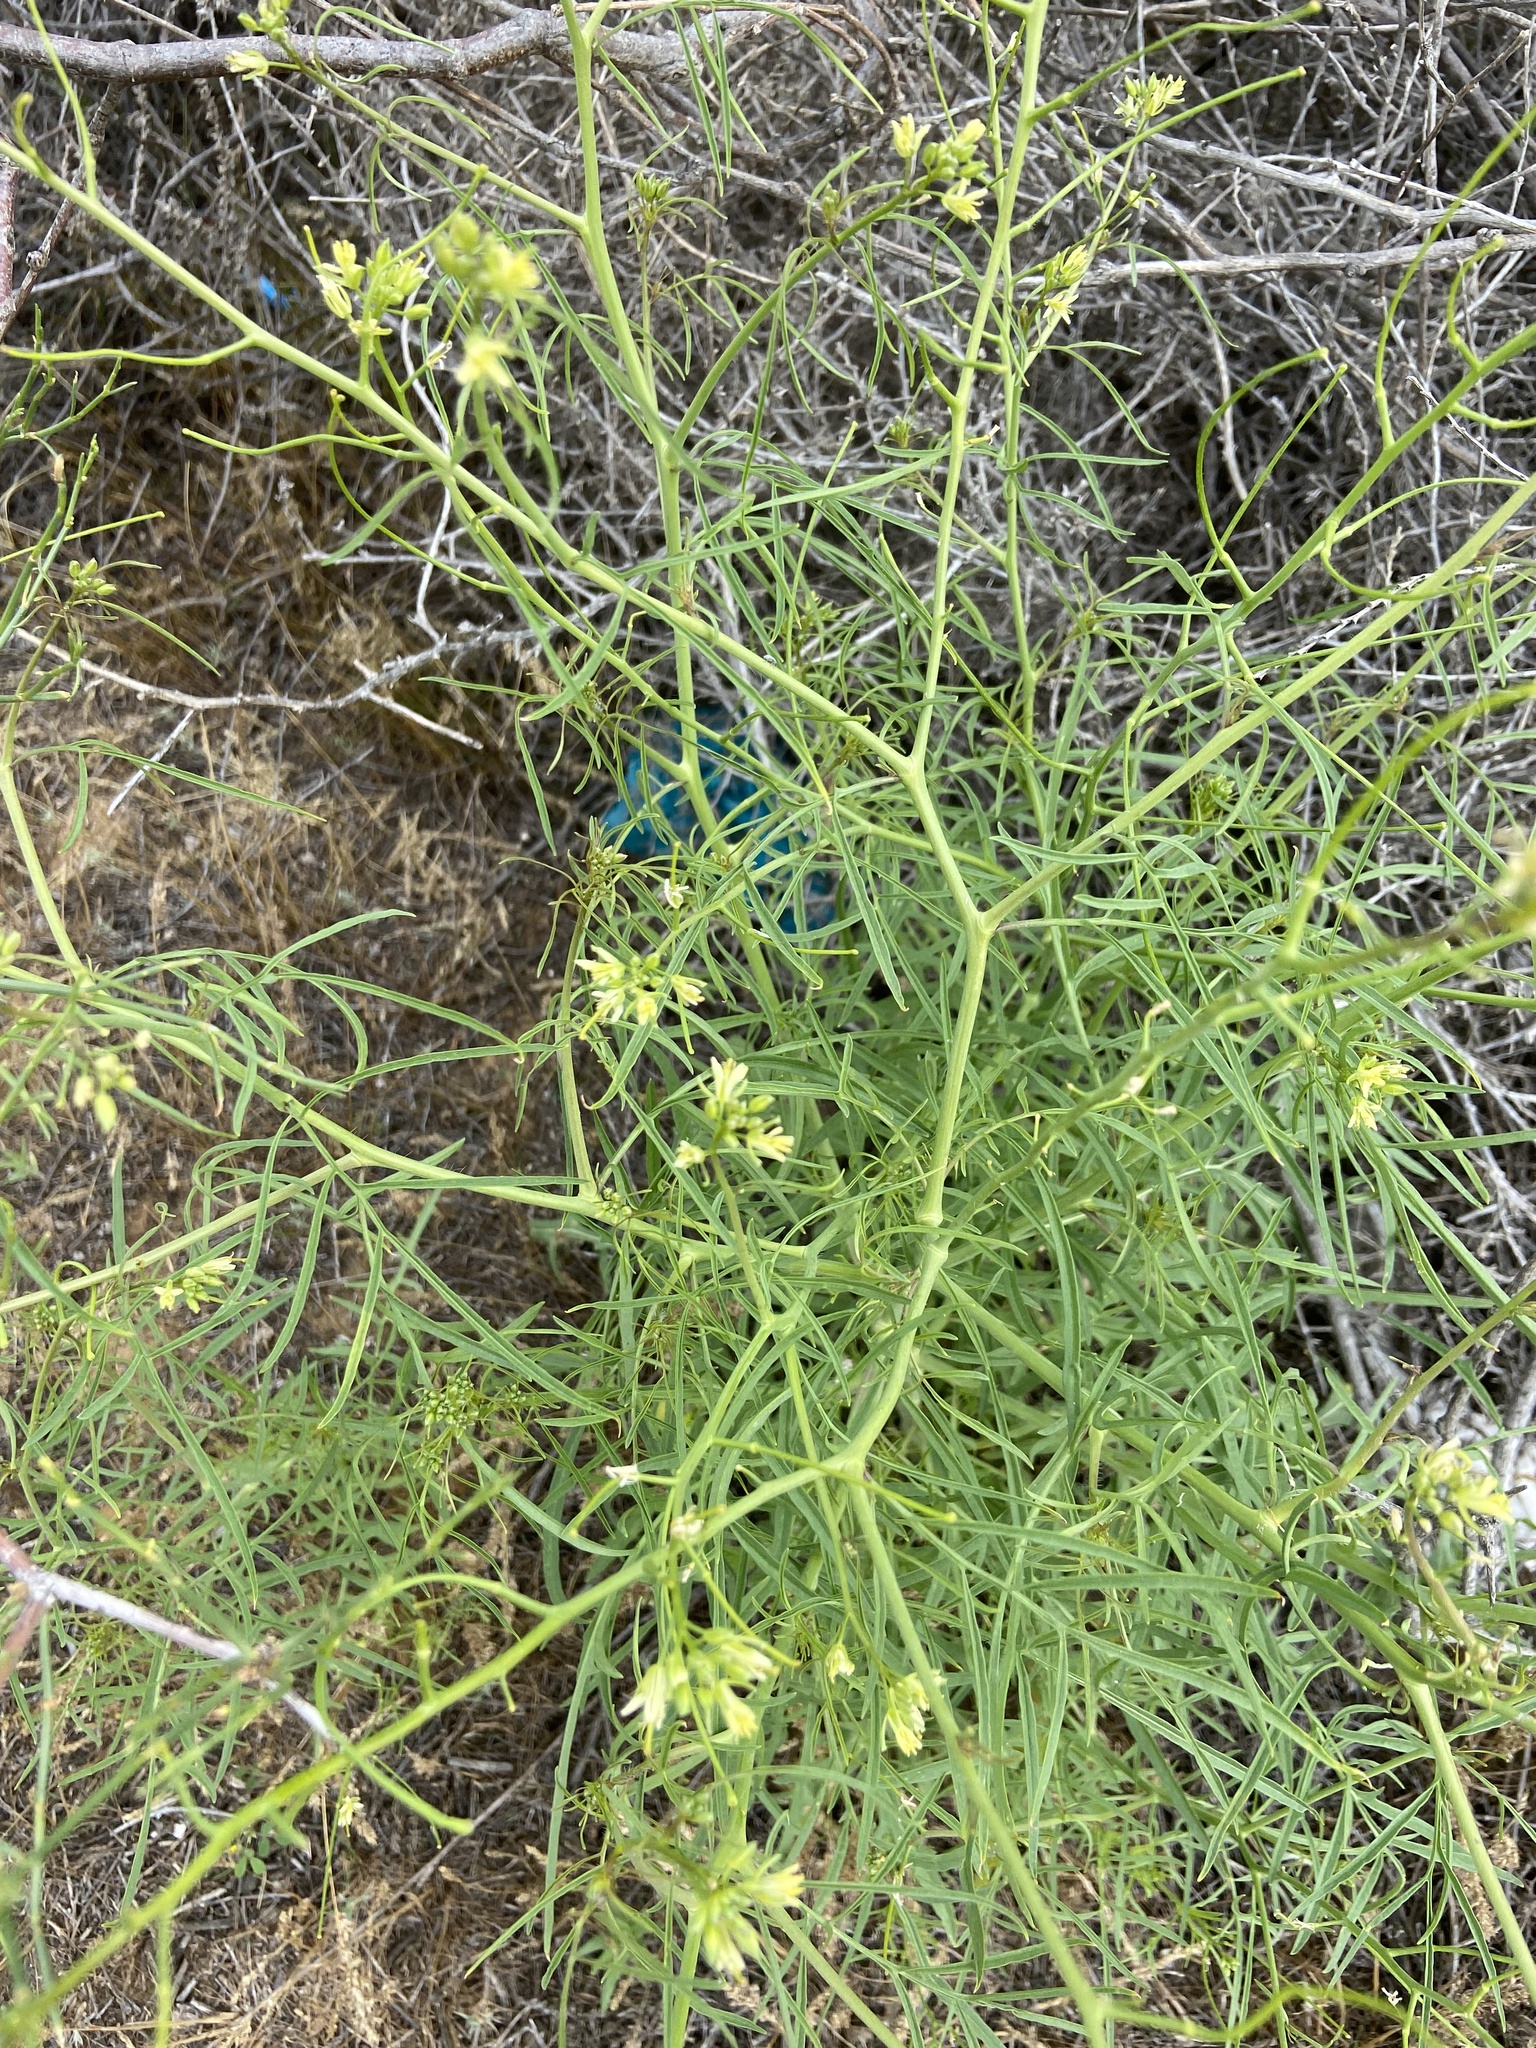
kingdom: Plantae
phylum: Tracheophyta
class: Magnoliopsida
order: Caryophyllales
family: Caryophyllaceae
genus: Gypsophila
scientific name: Gypsophila paniculata
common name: Baby's-breath
